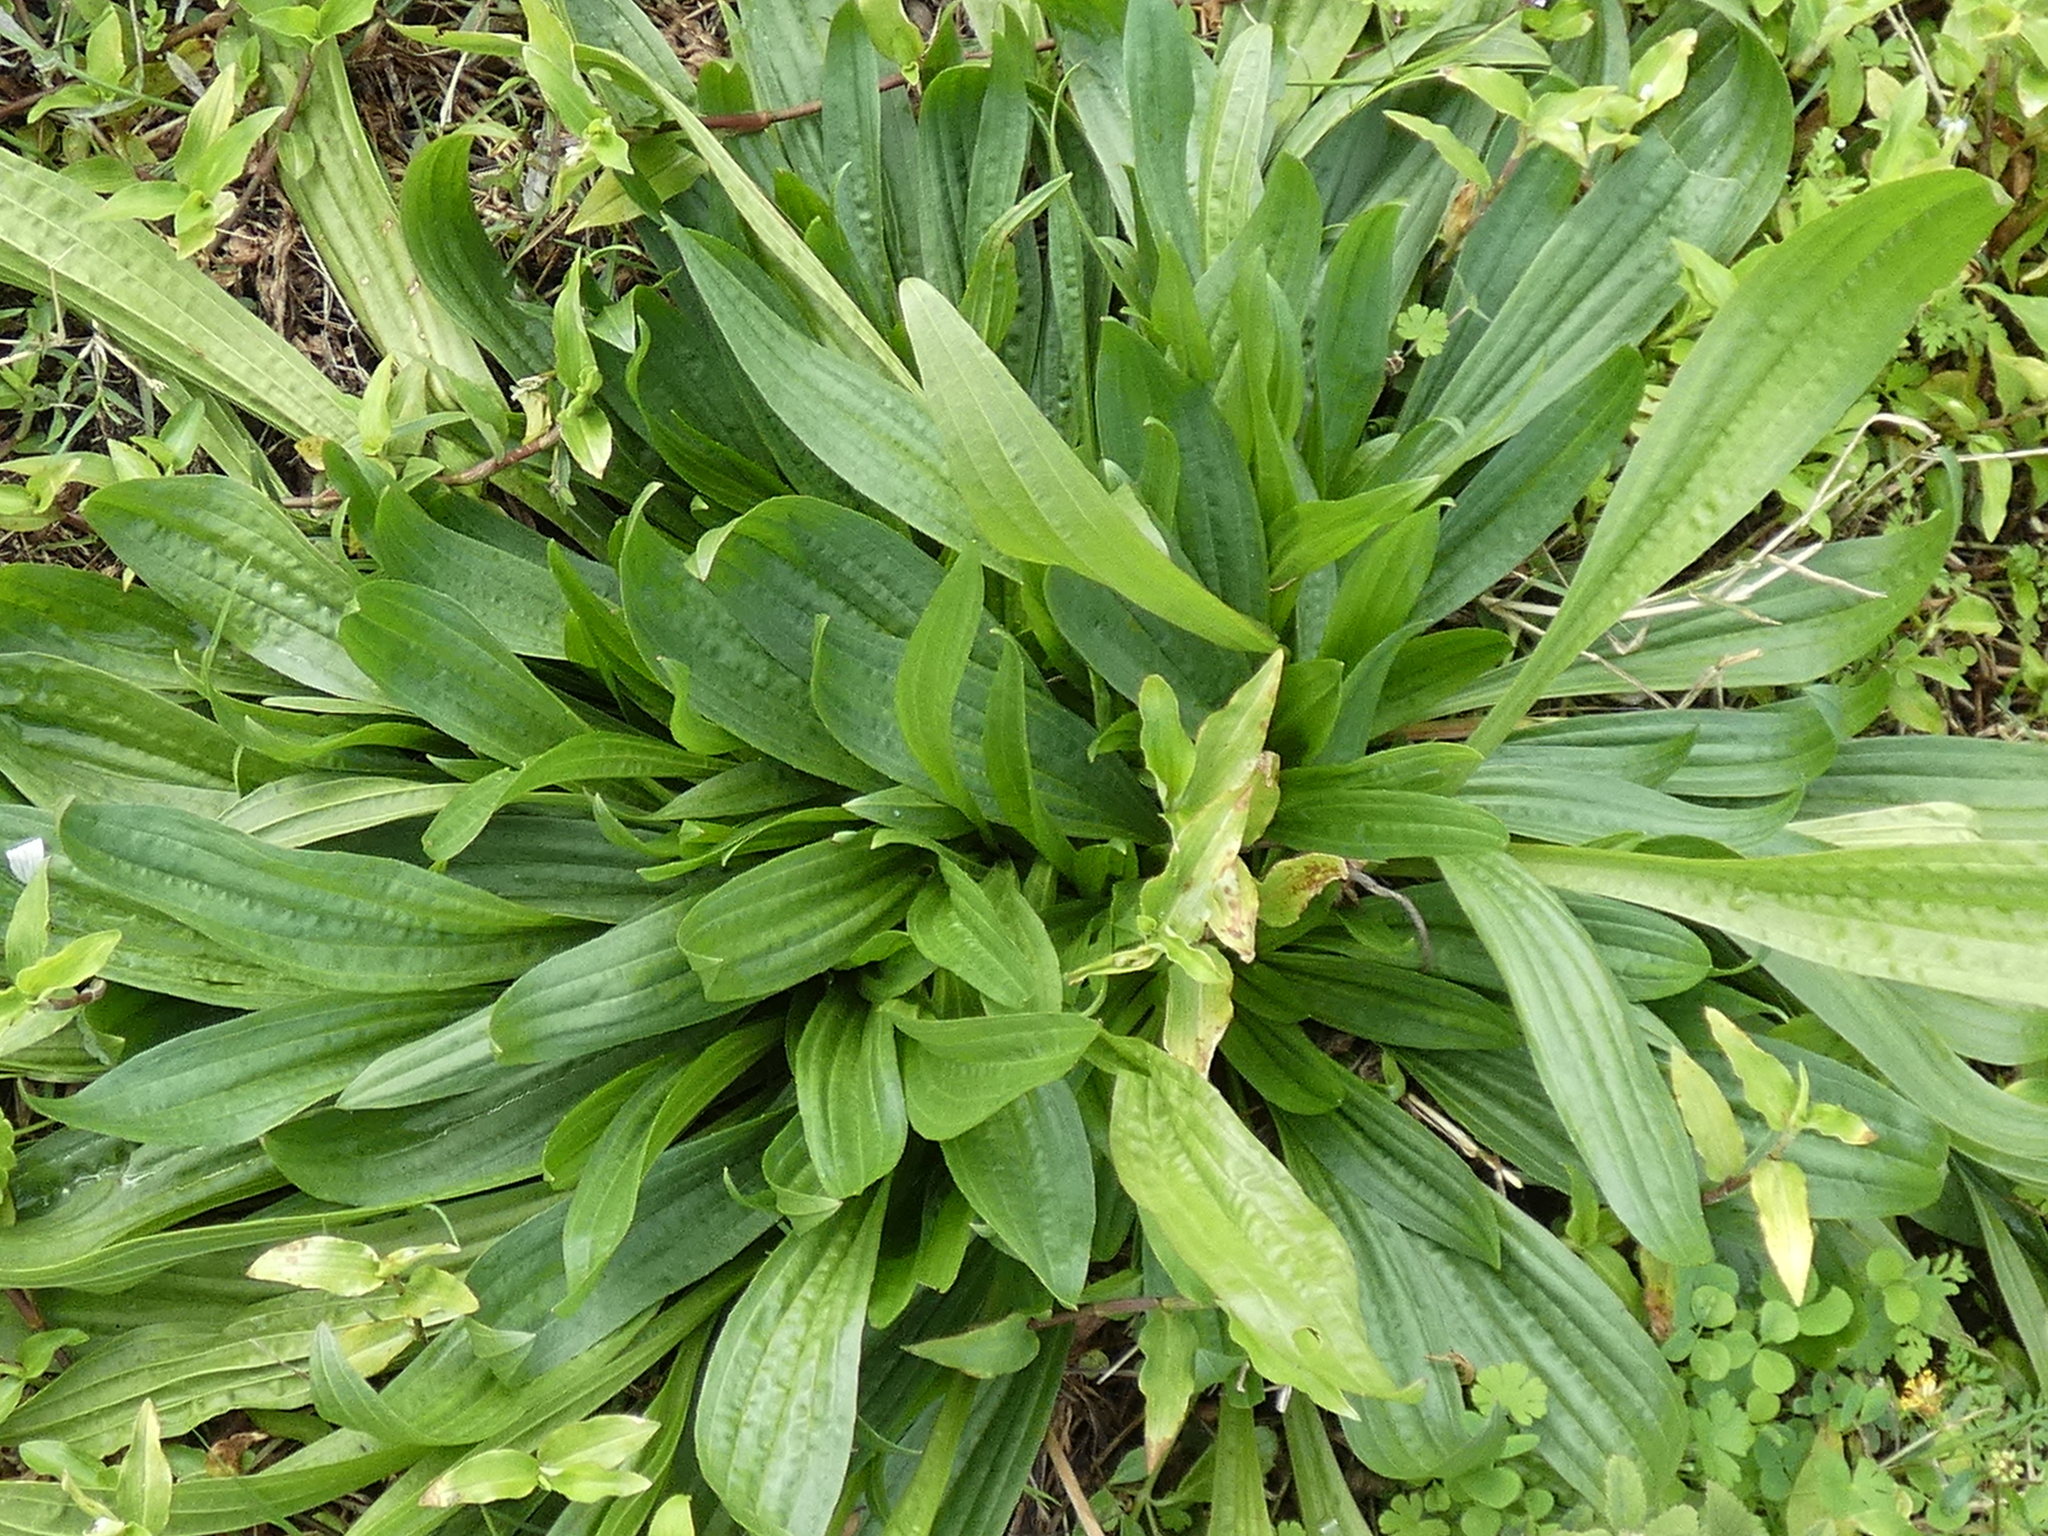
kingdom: Plantae
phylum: Tracheophyta
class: Magnoliopsida
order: Lamiales
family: Plantaginaceae
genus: Plantago
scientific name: Plantago lanceolata
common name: Ribwort plantain
